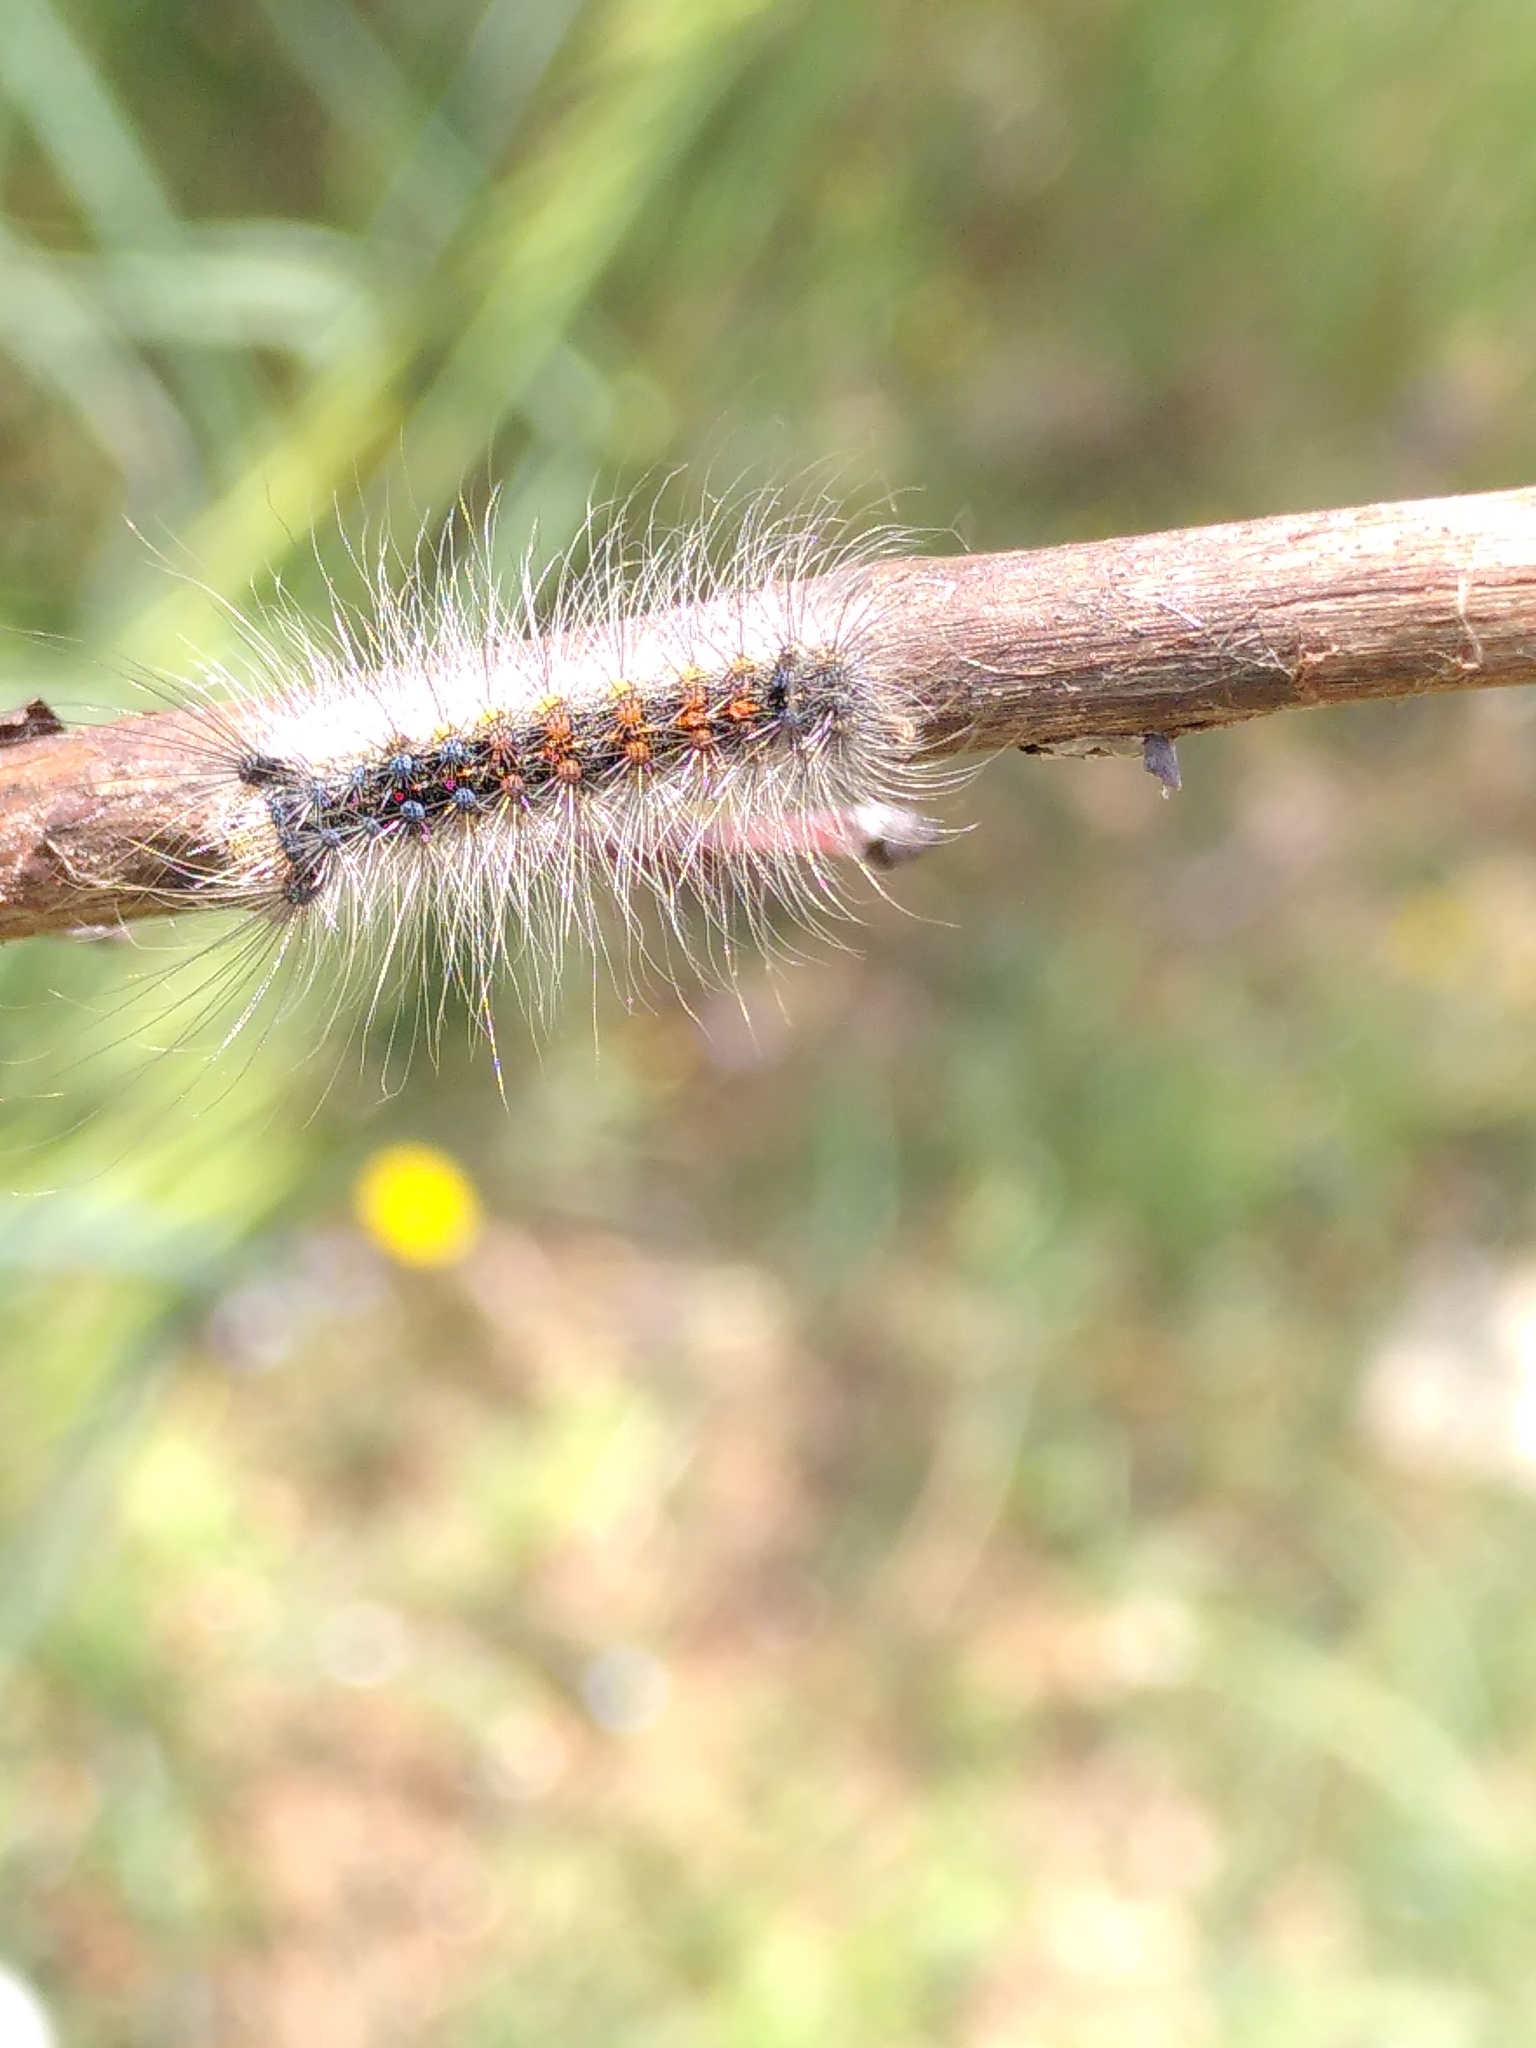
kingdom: Animalia
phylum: Arthropoda
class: Insecta
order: Lepidoptera
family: Erebidae
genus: Lymantria
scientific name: Lymantria dispar
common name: Gypsy moth
